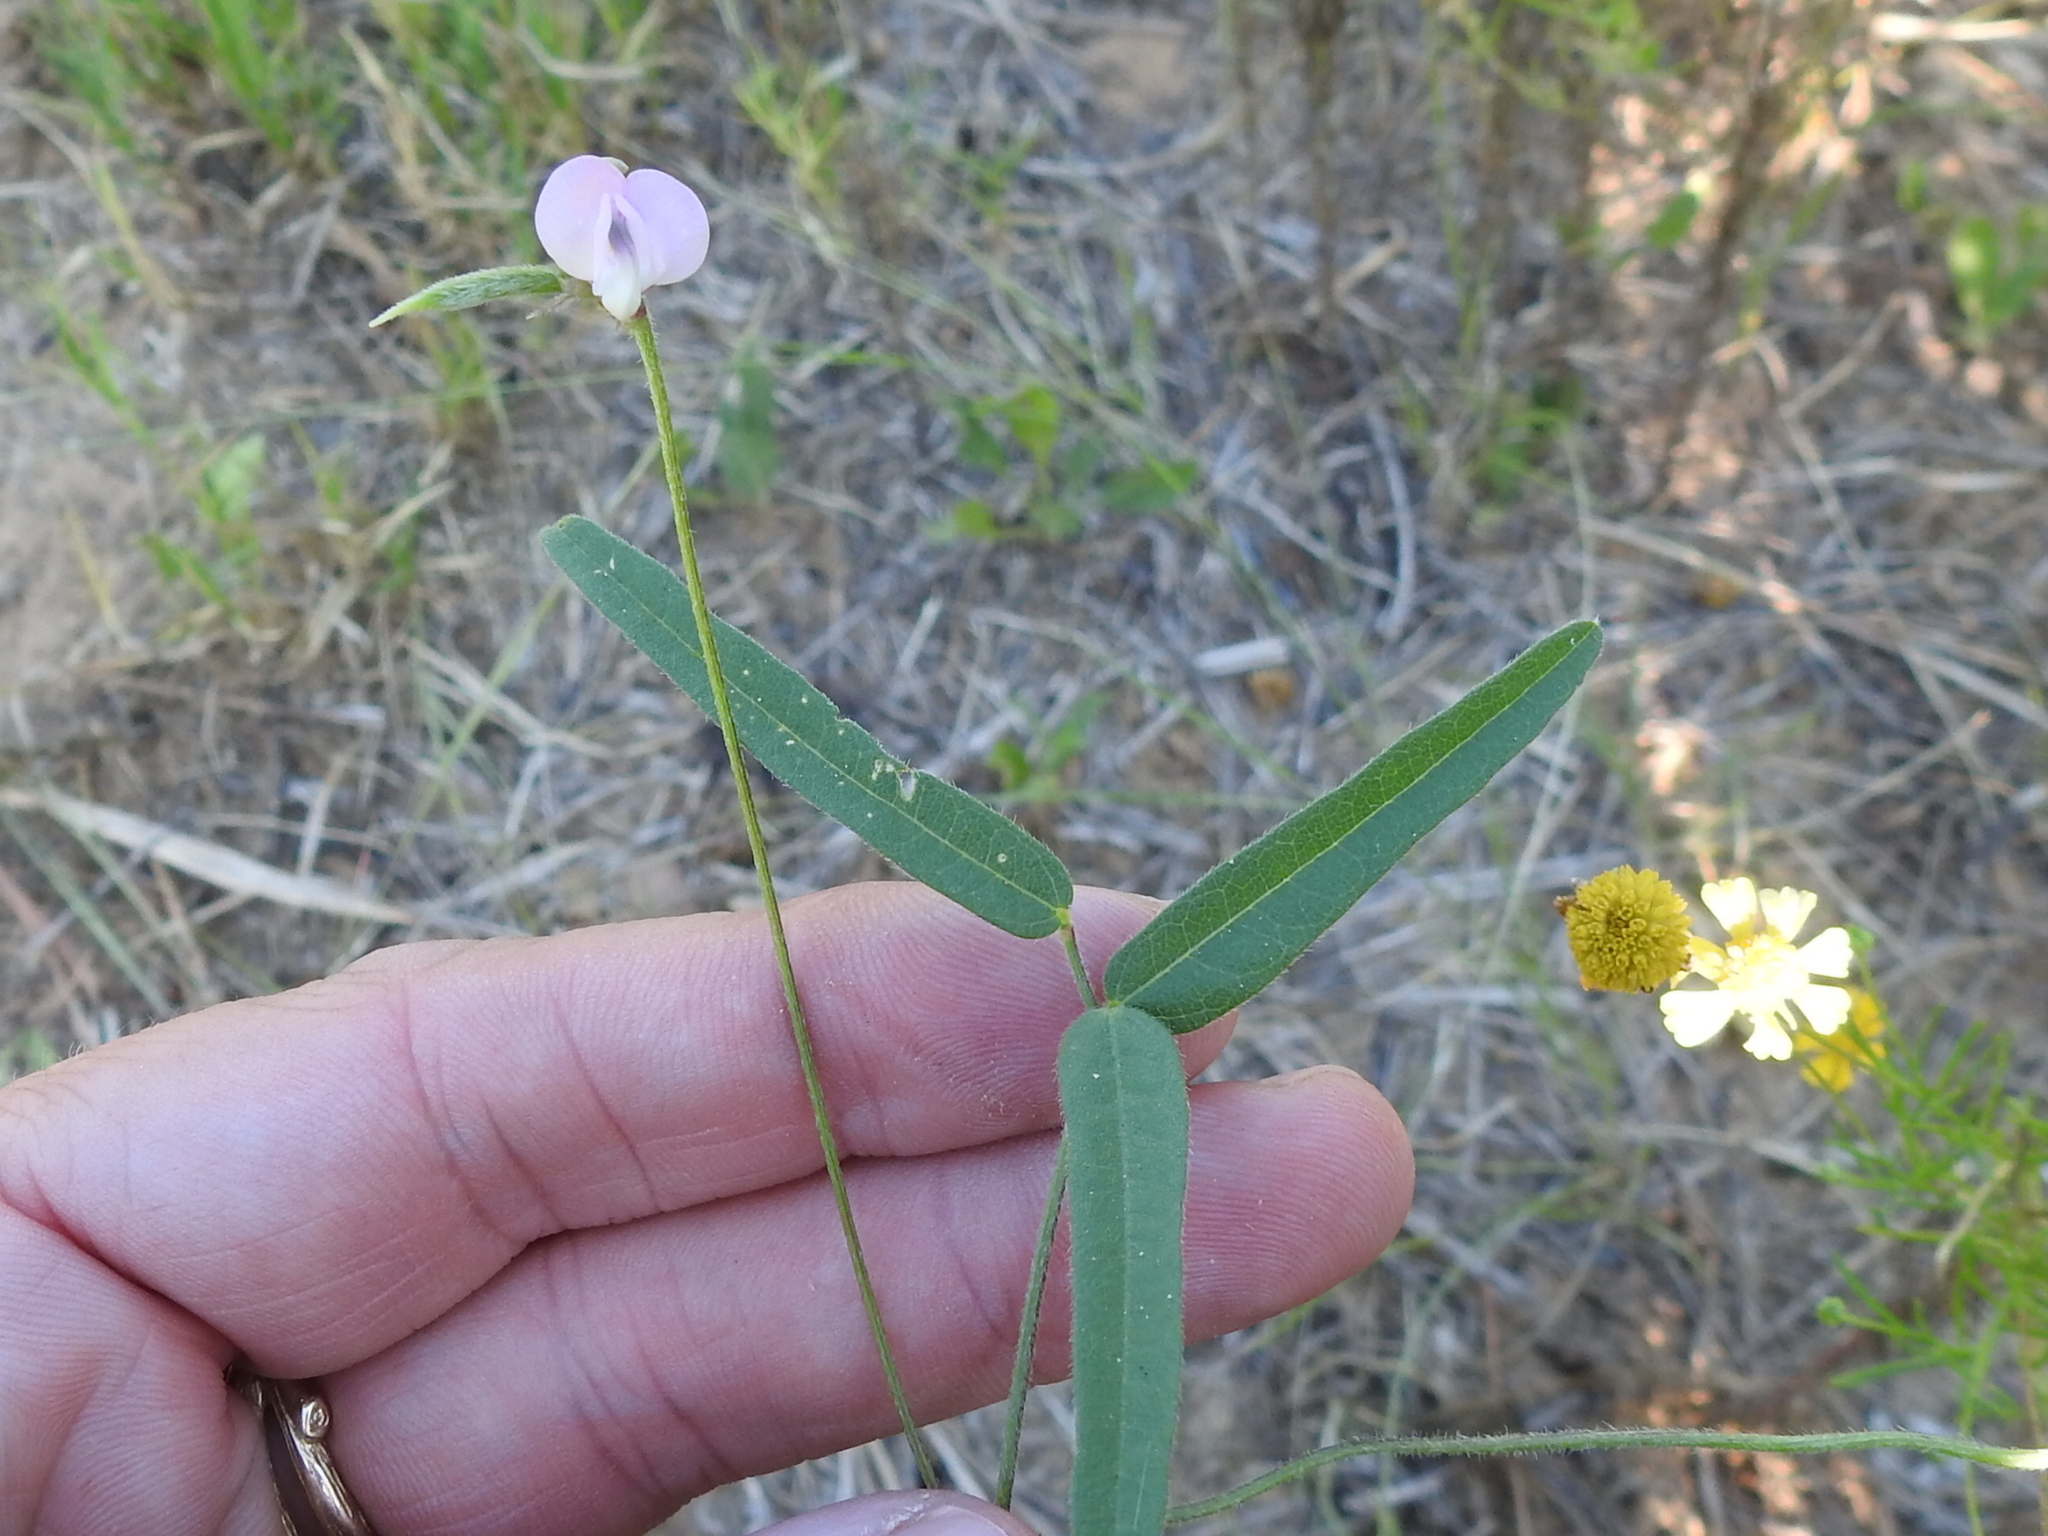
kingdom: Plantae
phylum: Tracheophyta
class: Magnoliopsida
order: Fabales
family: Fabaceae
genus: Strophostyles
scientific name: Strophostyles leiosperma
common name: Smooth-seed wild bean
